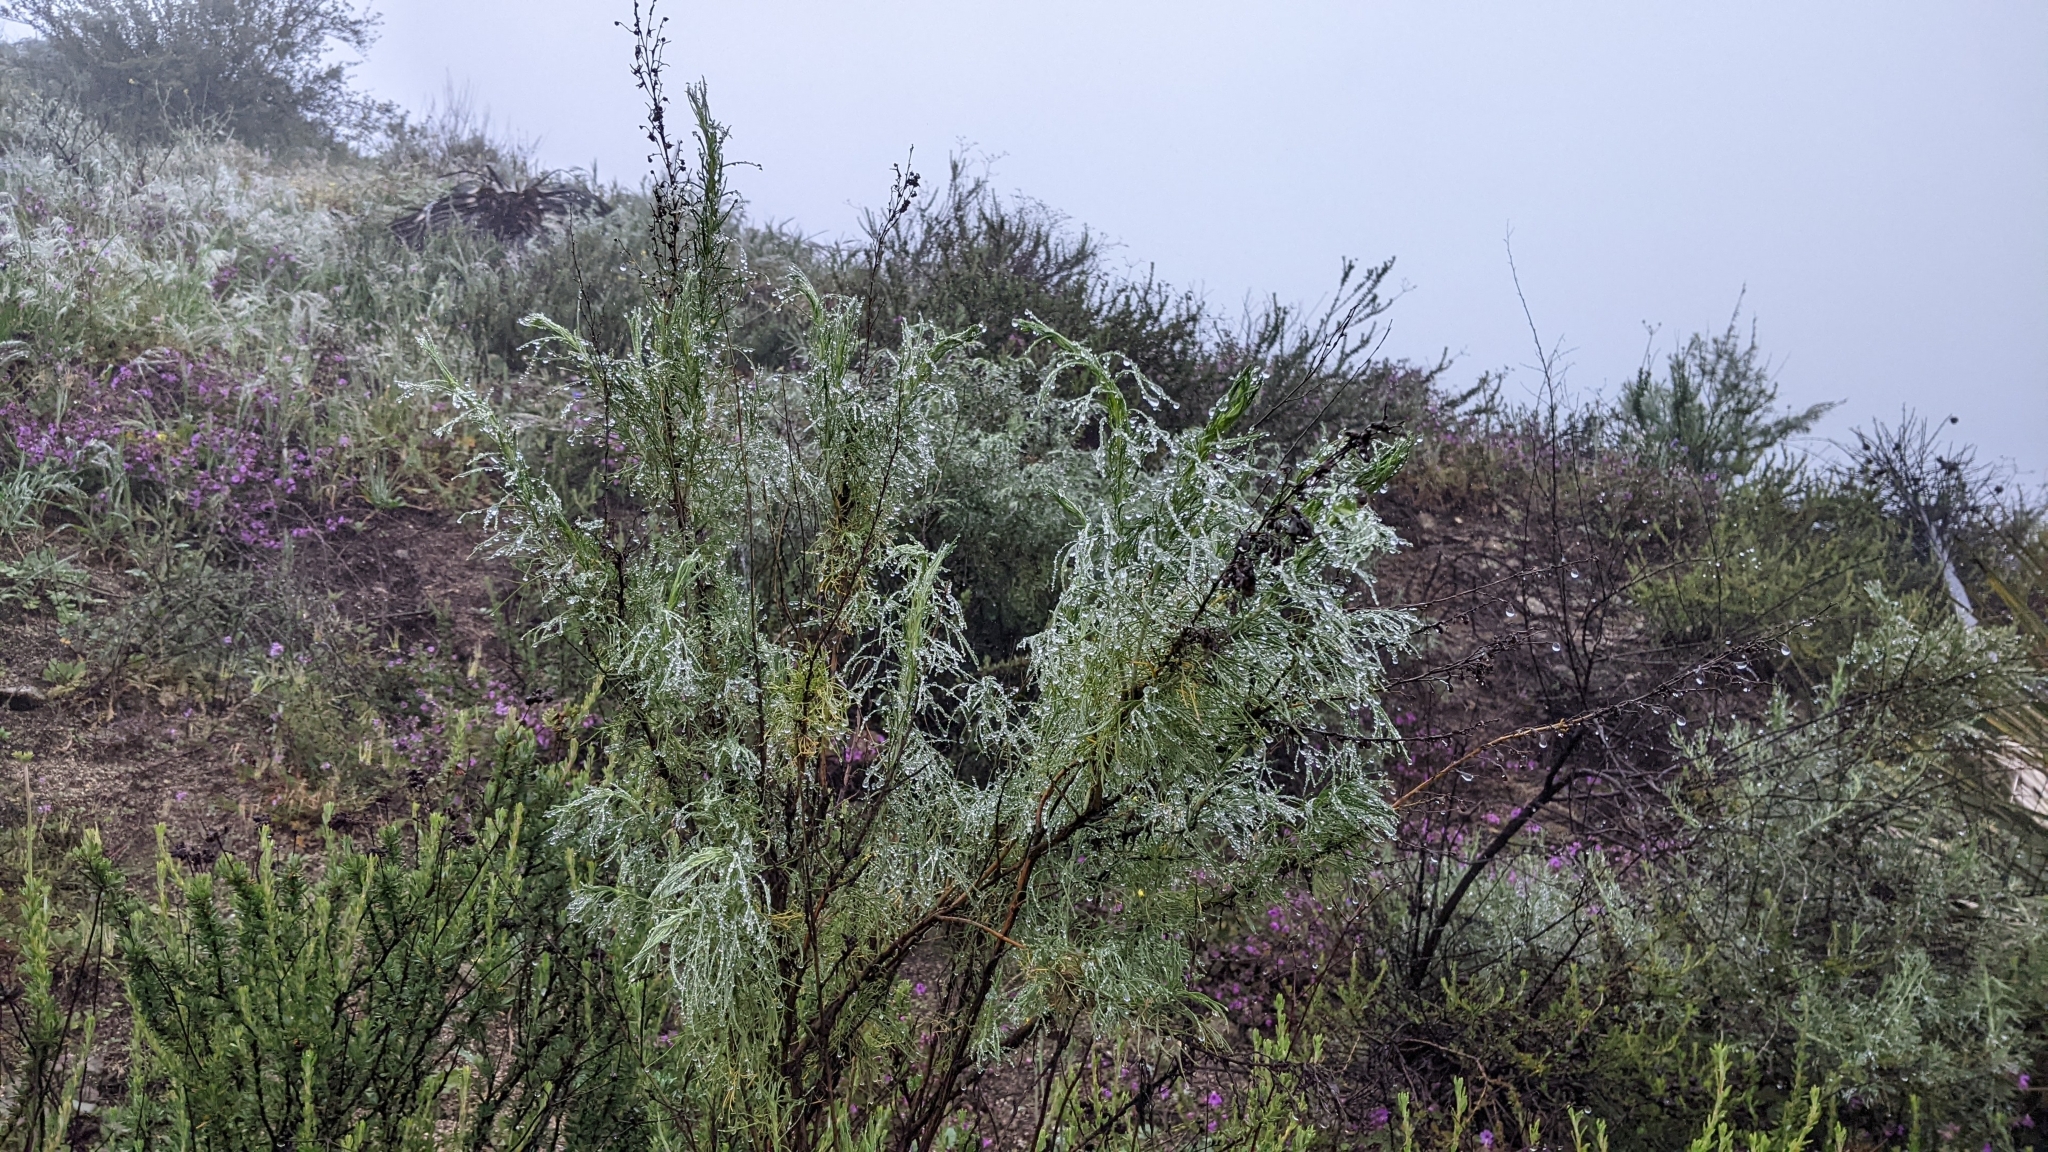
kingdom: Plantae
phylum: Tracheophyta
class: Magnoliopsida
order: Asterales
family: Asteraceae
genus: Artemisia
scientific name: Artemisia californica
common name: California sagebrush
